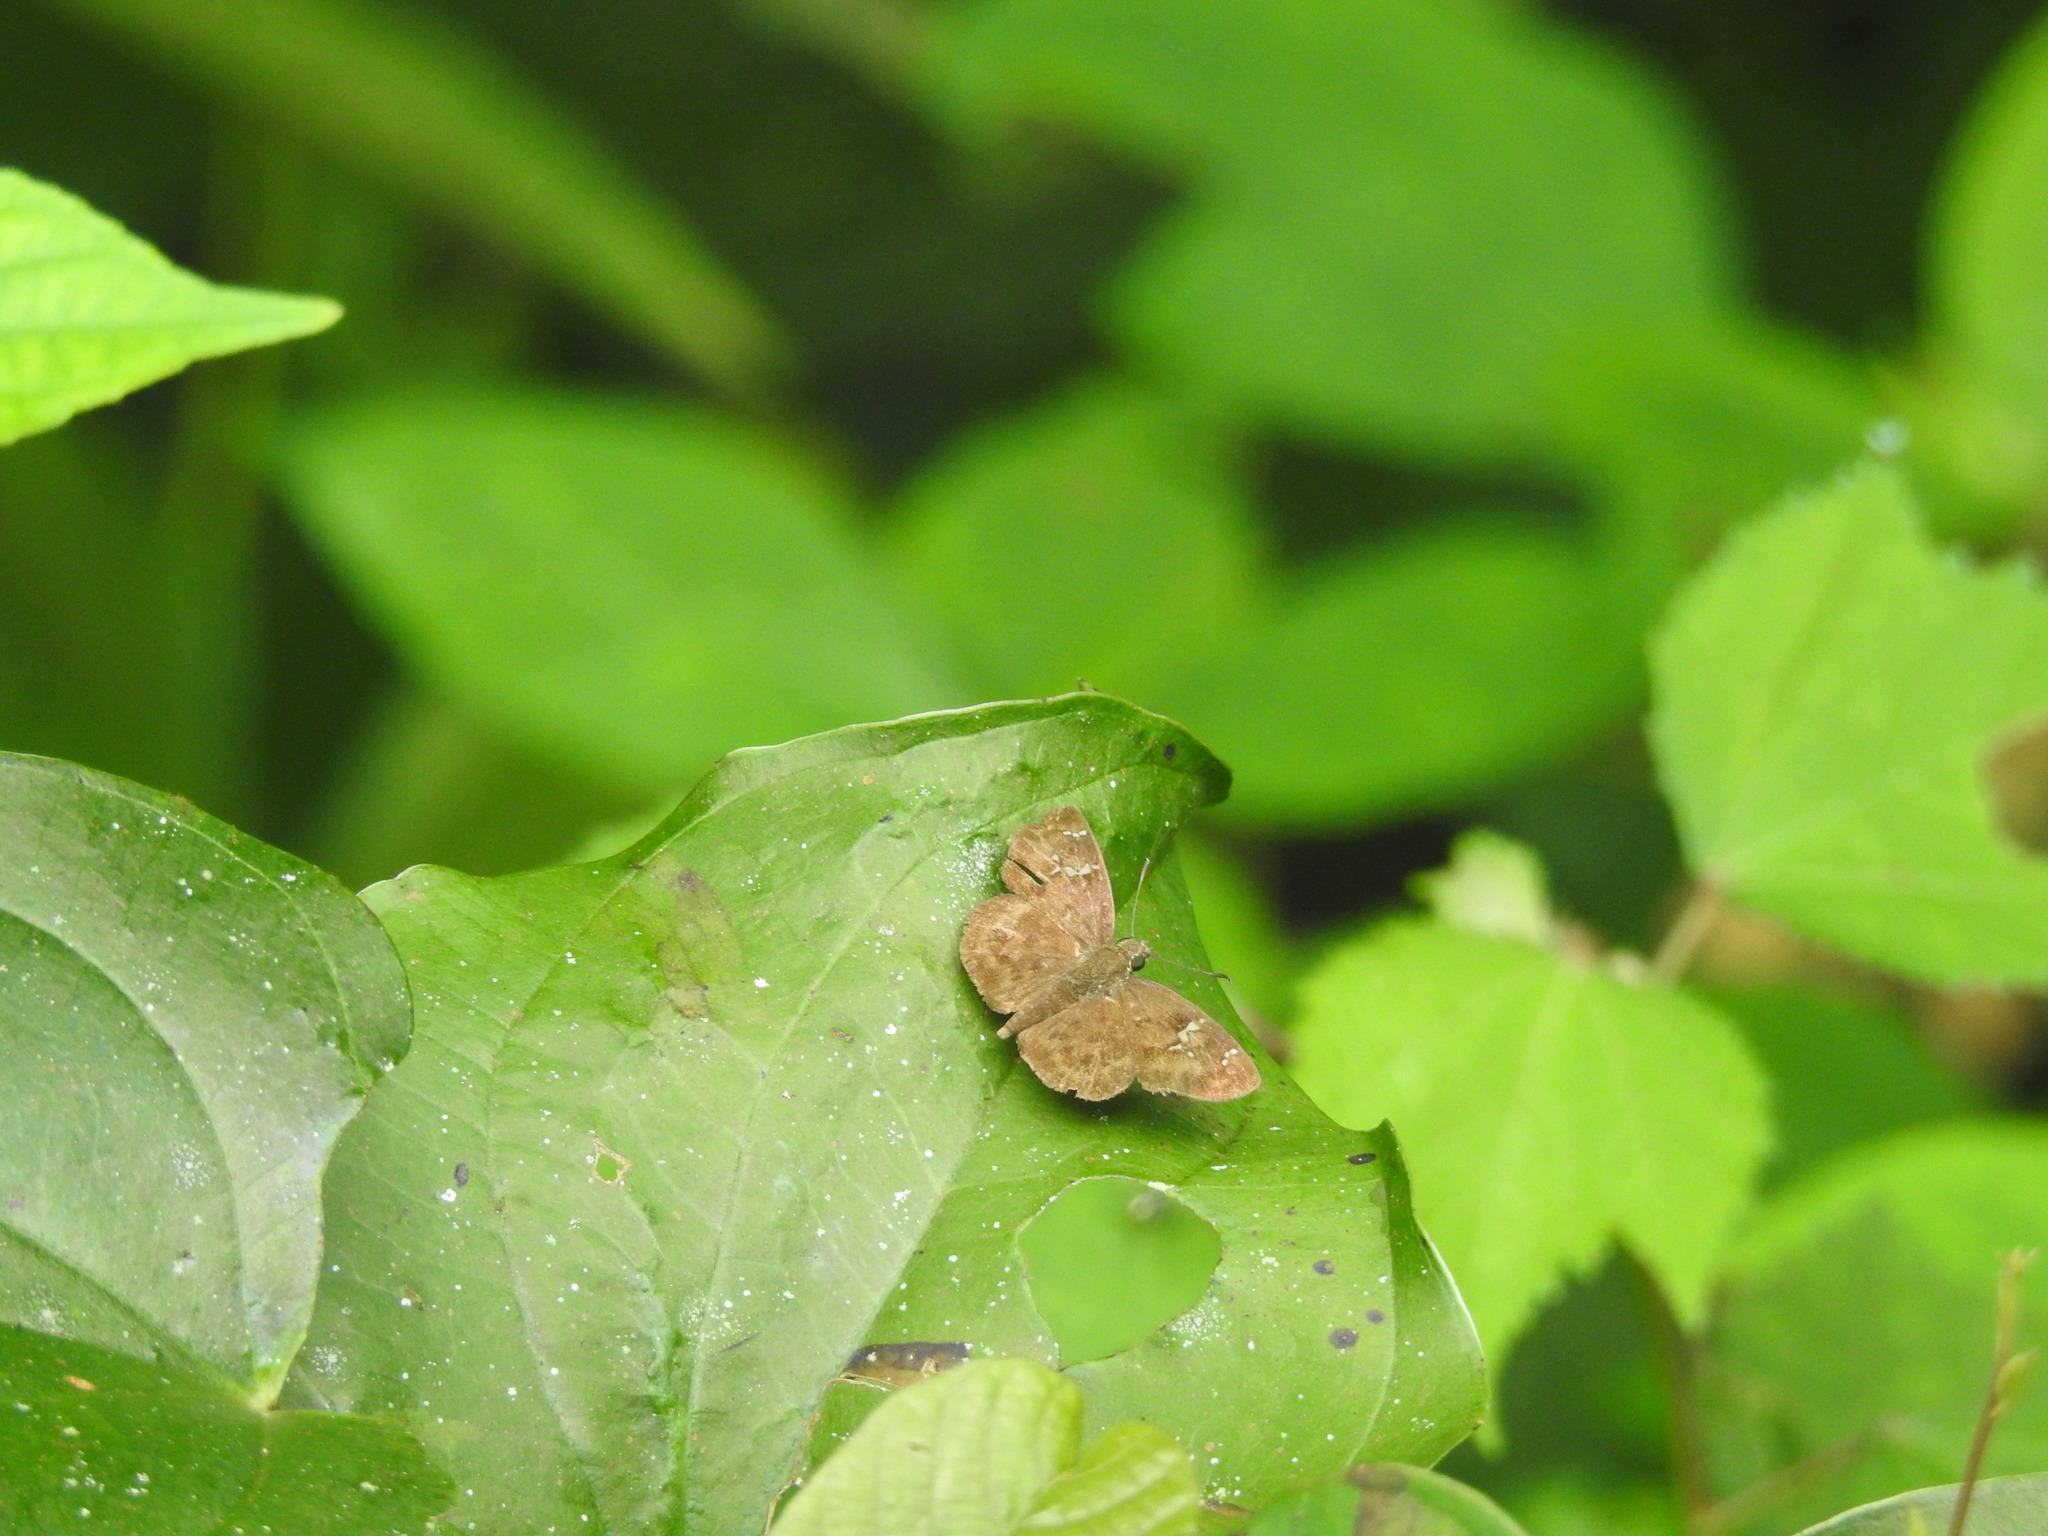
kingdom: Animalia
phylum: Arthropoda
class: Insecta
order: Lepidoptera
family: Hesperiidae
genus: Sarangesa
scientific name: Sarangesa dasahara
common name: Common small flat
